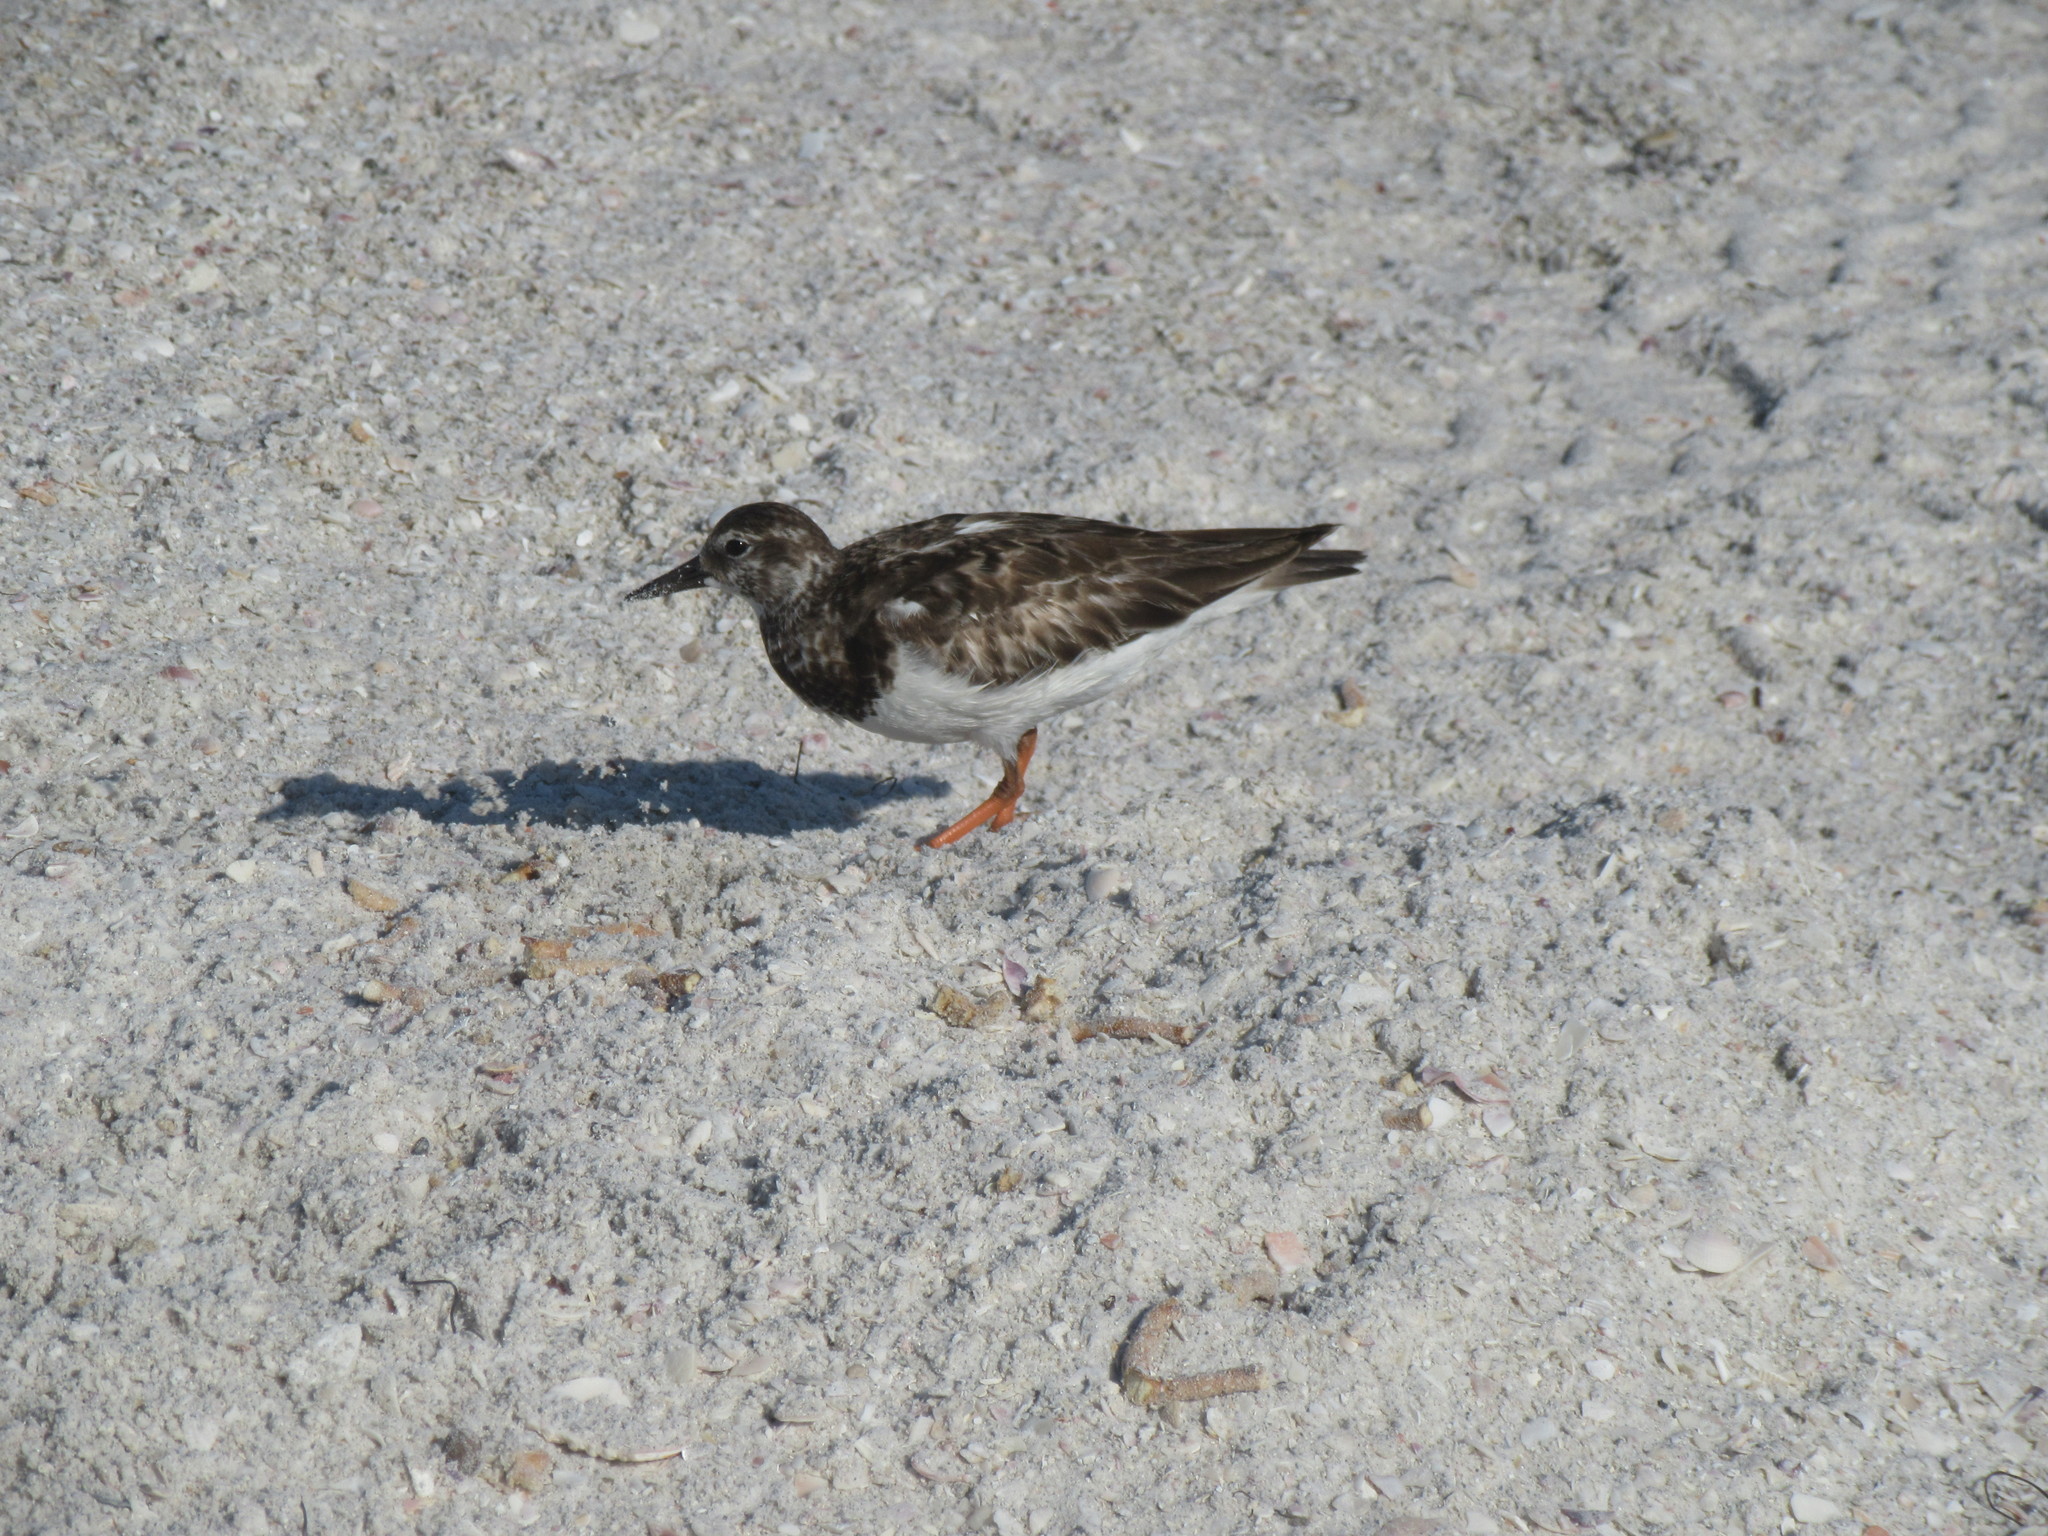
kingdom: Animalia
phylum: Chordata
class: Aves
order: Charadriiformes
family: Scolopacidae
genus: Arenaria
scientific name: Arenaria interpres
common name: Ruddy turnstone
